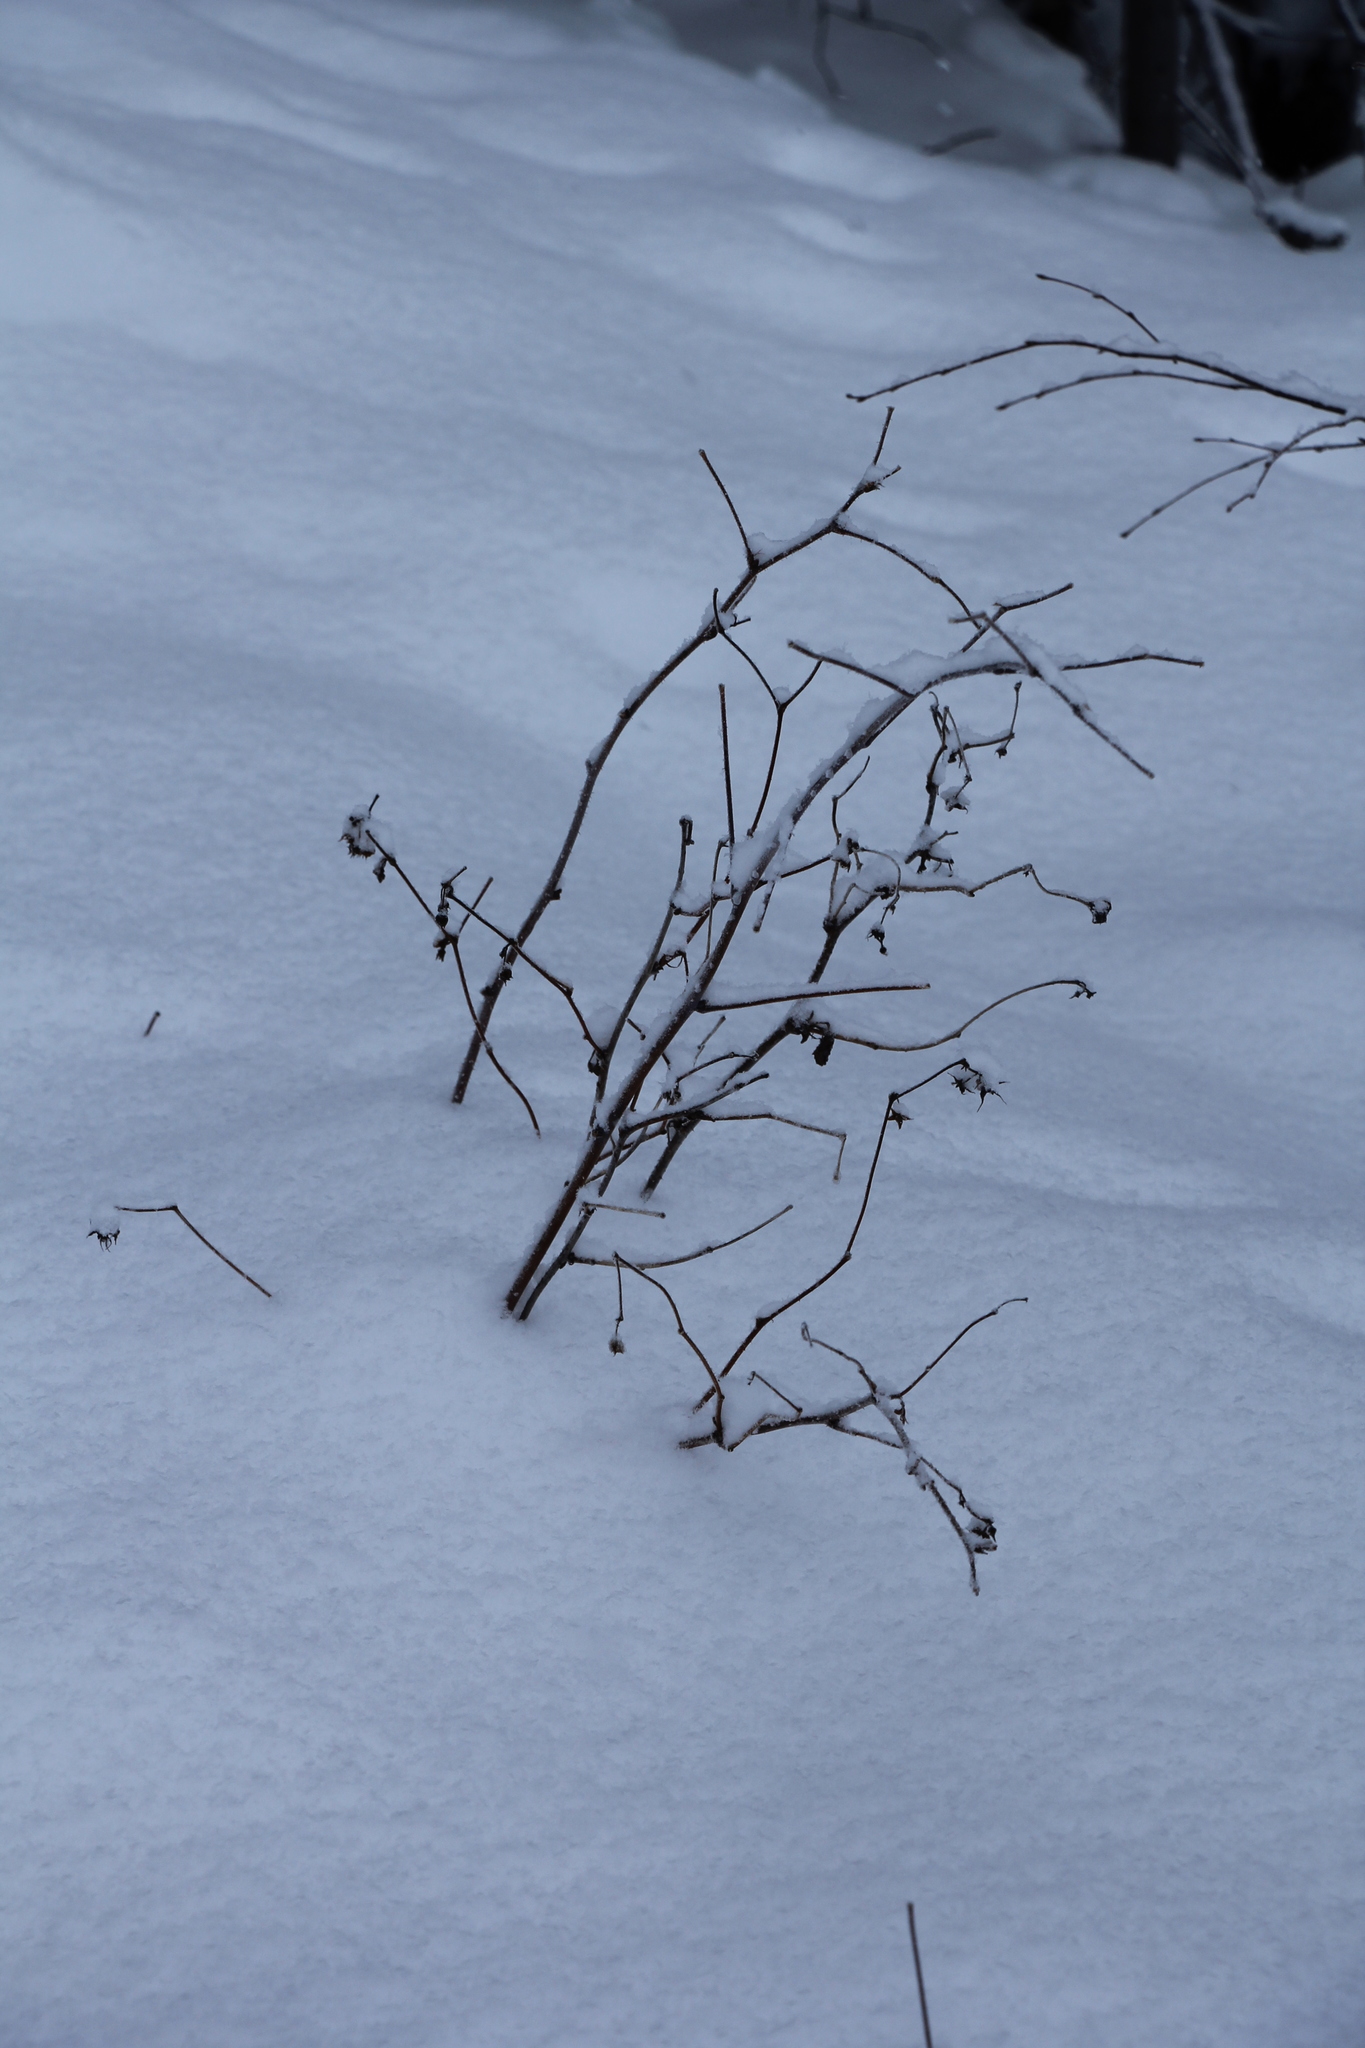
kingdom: Plantae
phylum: Tracheophyta
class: Magnoliopsida
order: Rosales
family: Rosaceae
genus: Rubus
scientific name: Rubus sachalinensis
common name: Red raspberry
